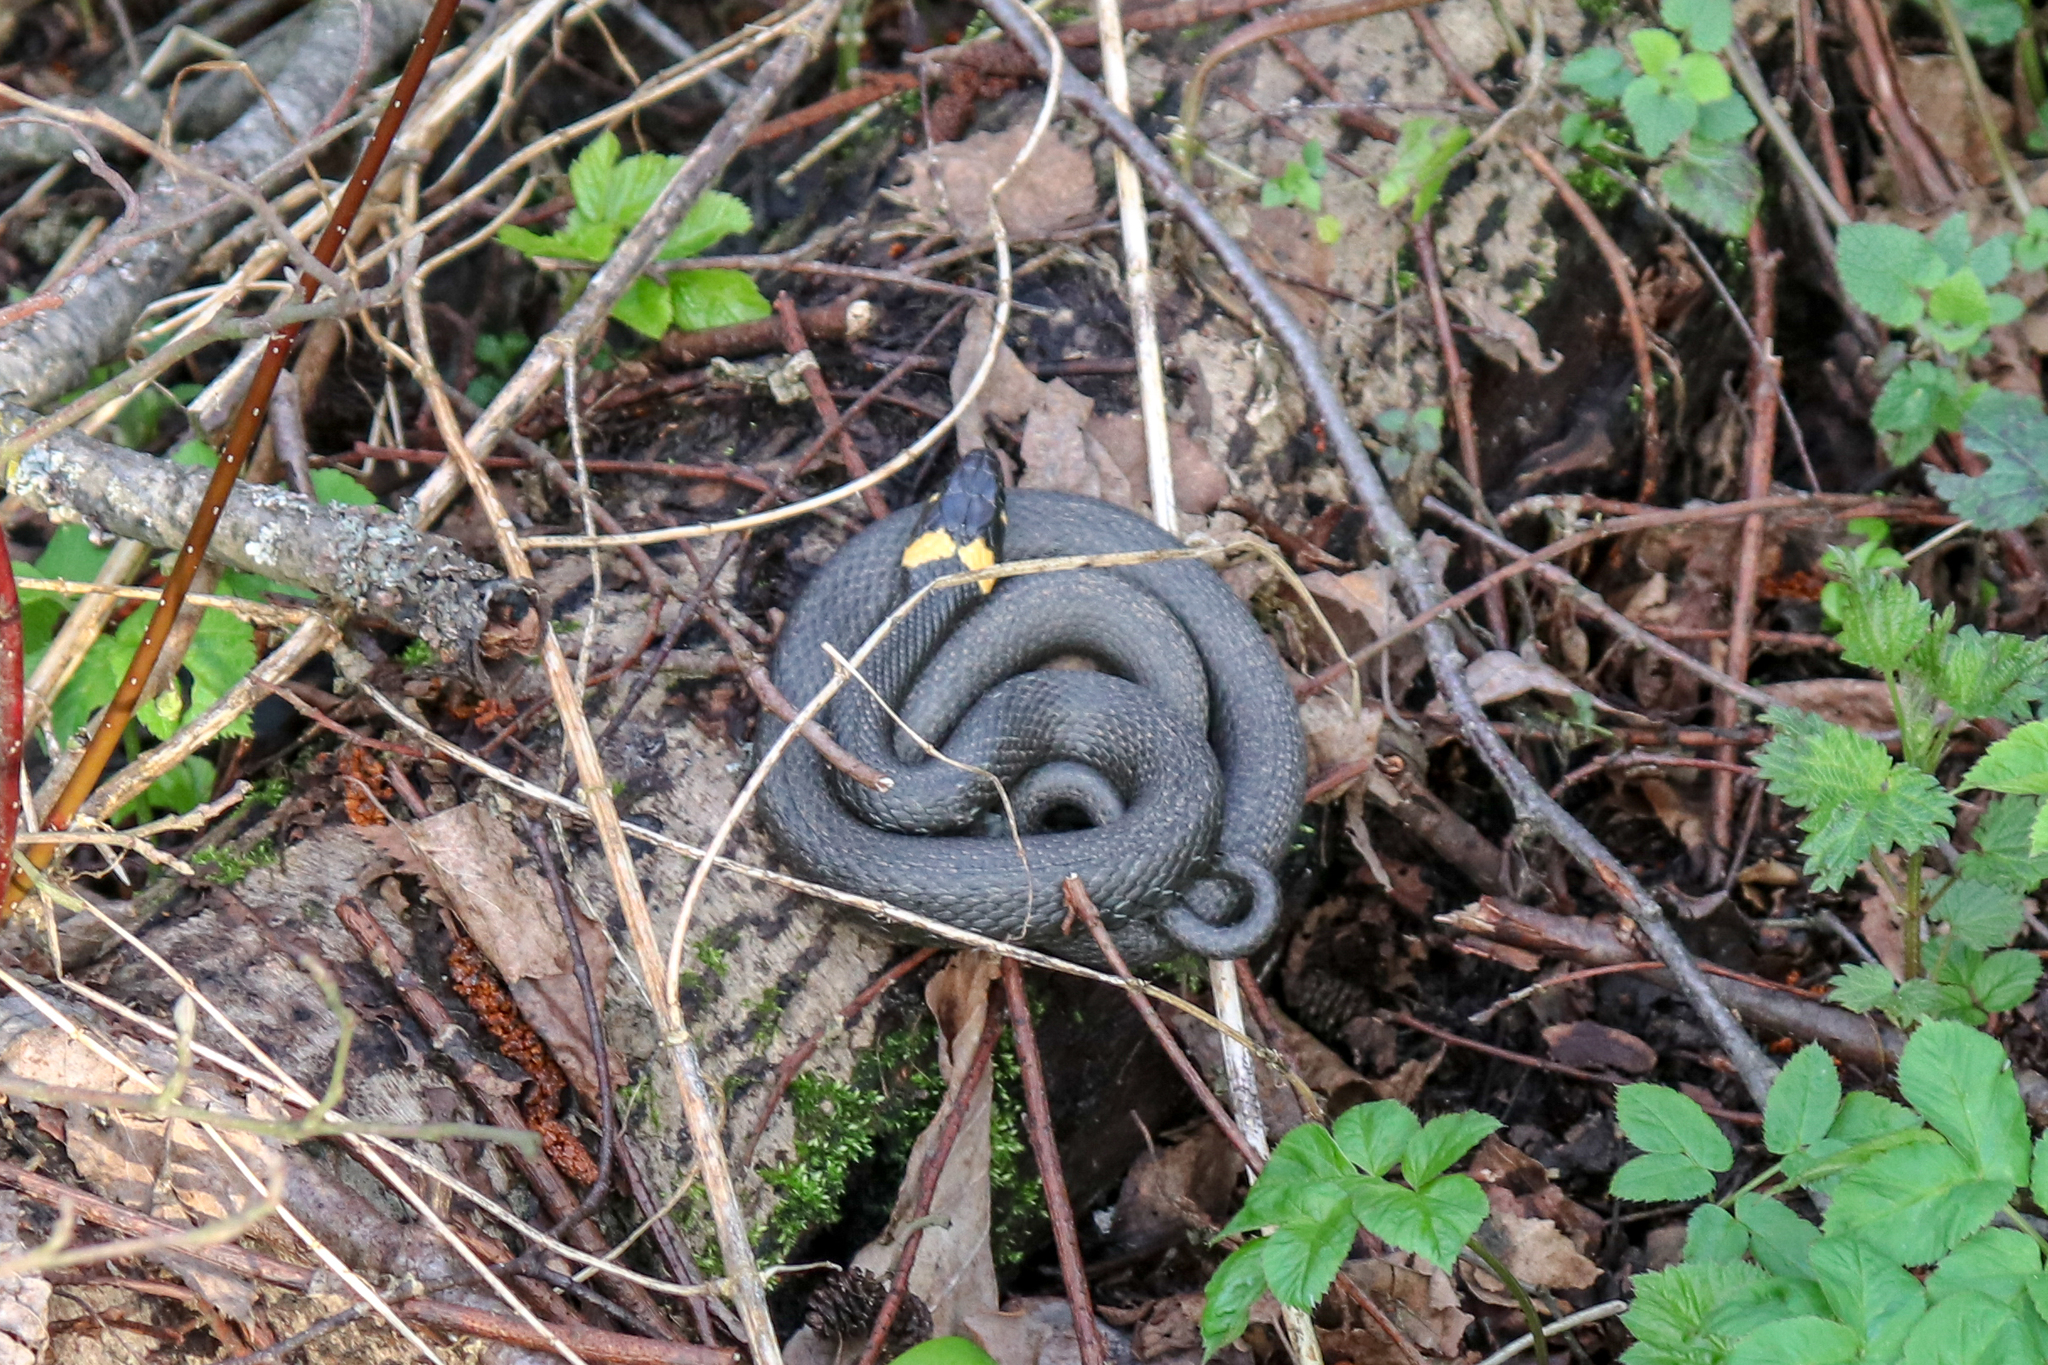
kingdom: Animalia
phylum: Chordata
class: Squamata
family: Colubridae
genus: Natrix
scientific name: Natrix natrix
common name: Grass snake
